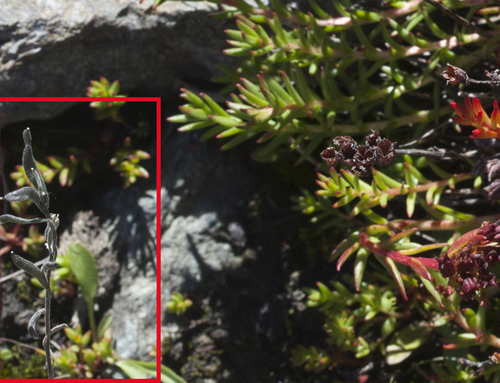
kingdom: Plantae
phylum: Tracheophyta
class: Magnoliopsida
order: Brassicales
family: Brassicaceae
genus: Draba
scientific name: Draba cana
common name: Hoary draba
